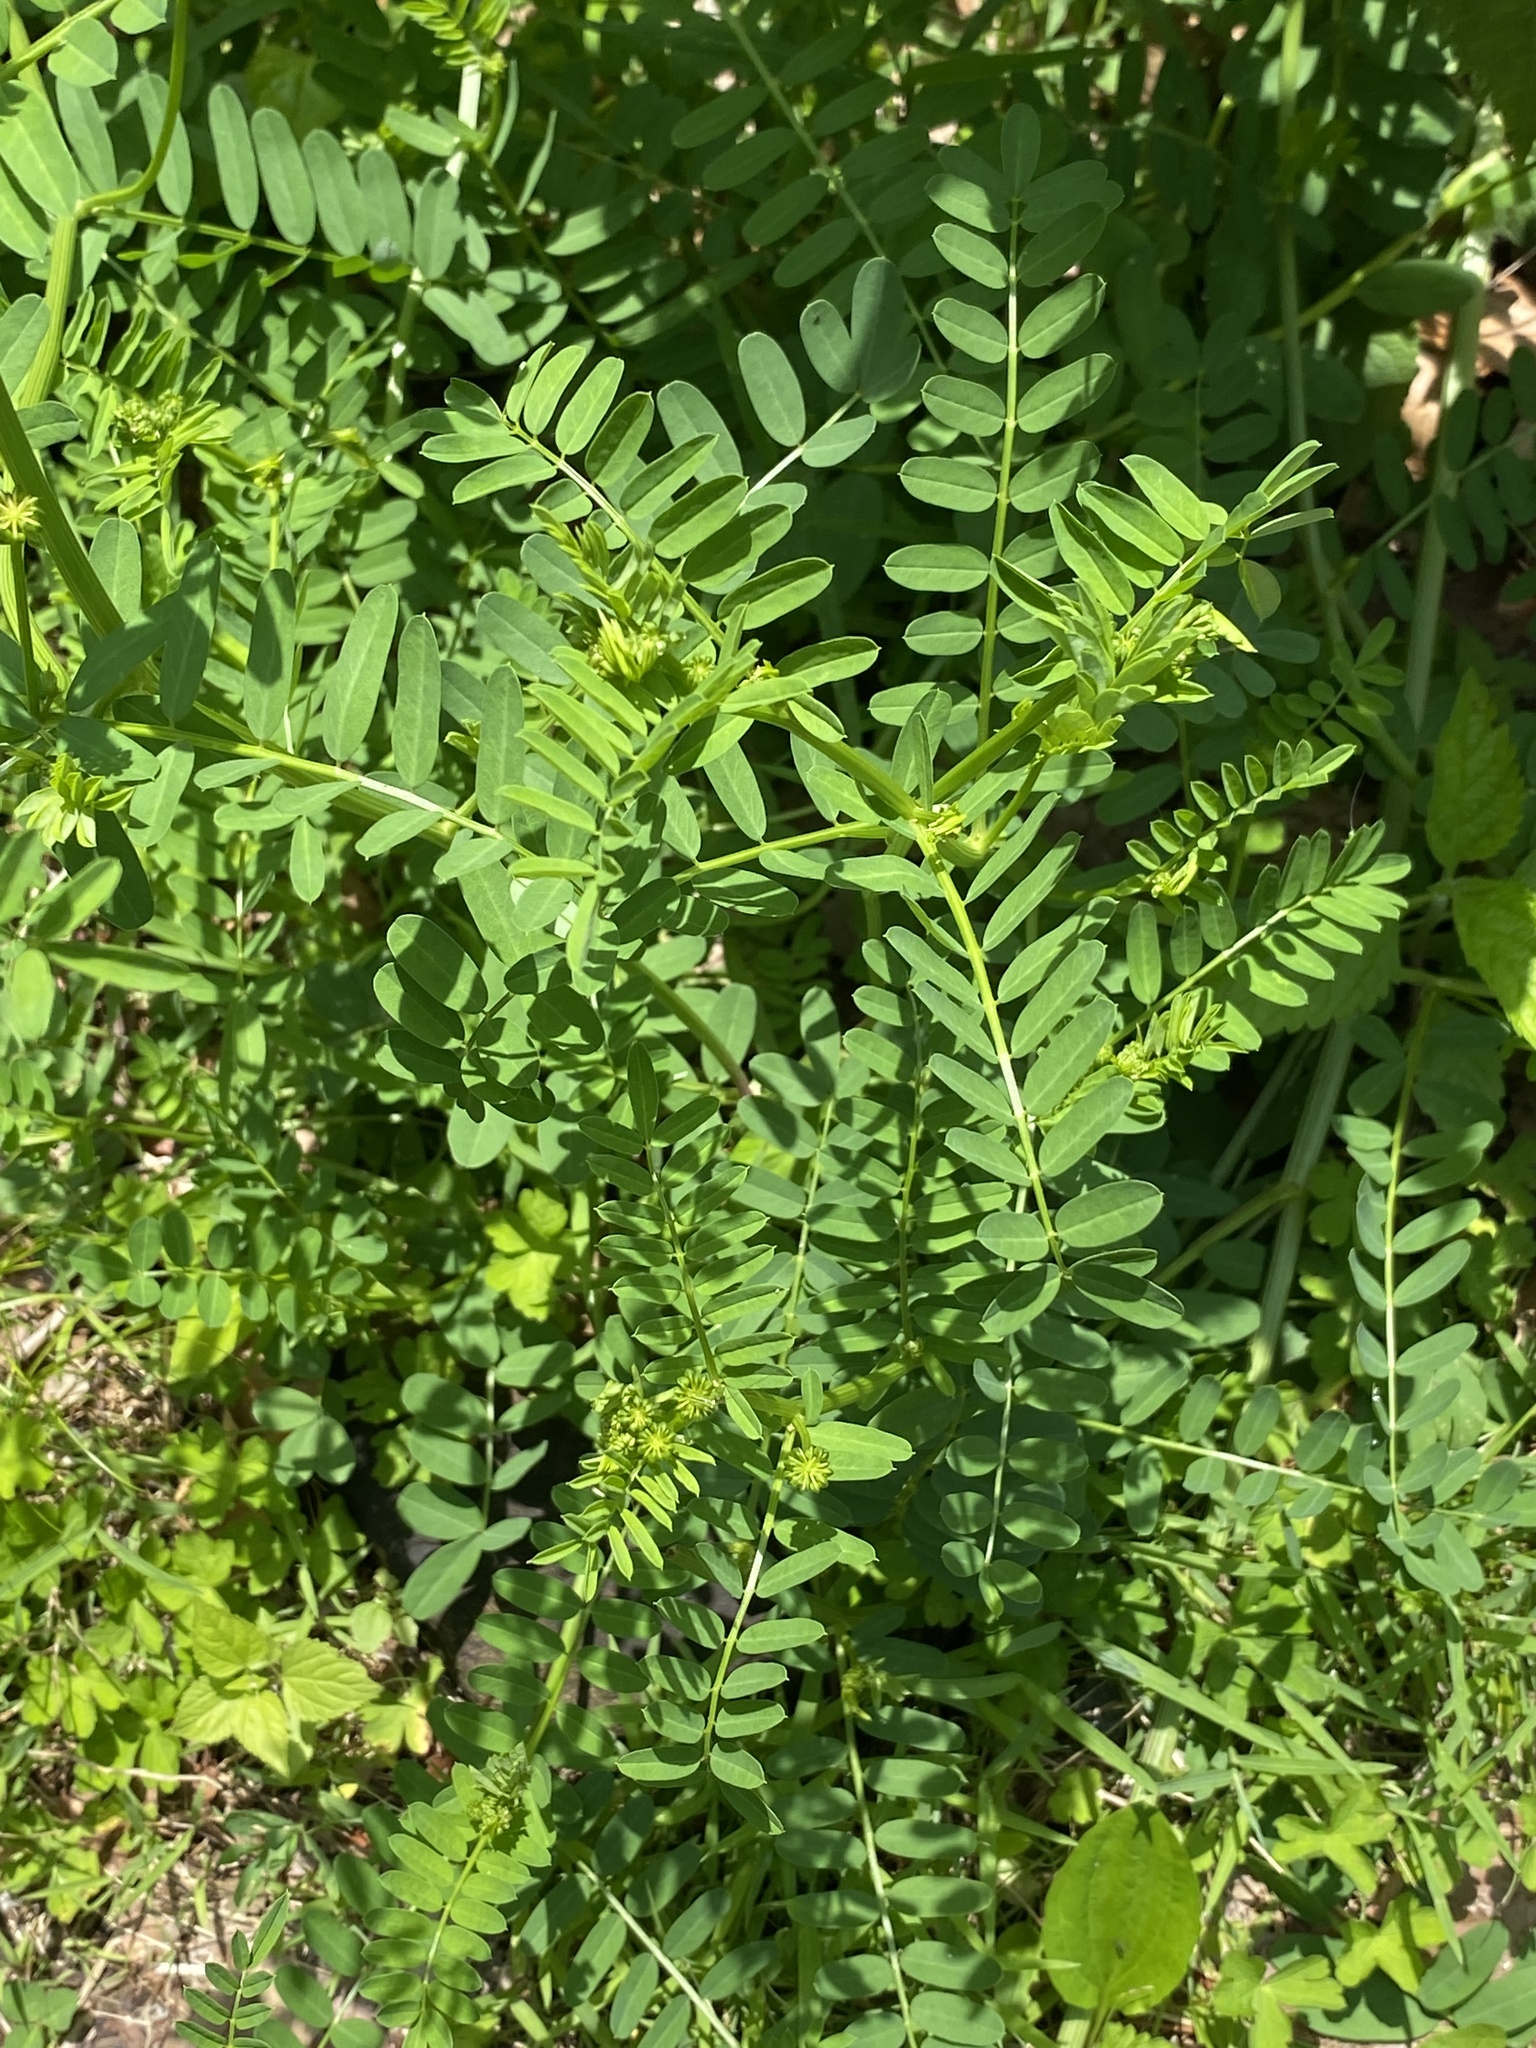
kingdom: Plantae
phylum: Tracheophyta
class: Magnoliopsida
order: Fabales
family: Fabaceae
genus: Coronilla
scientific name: Coronilla varia
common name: Crownvetch
